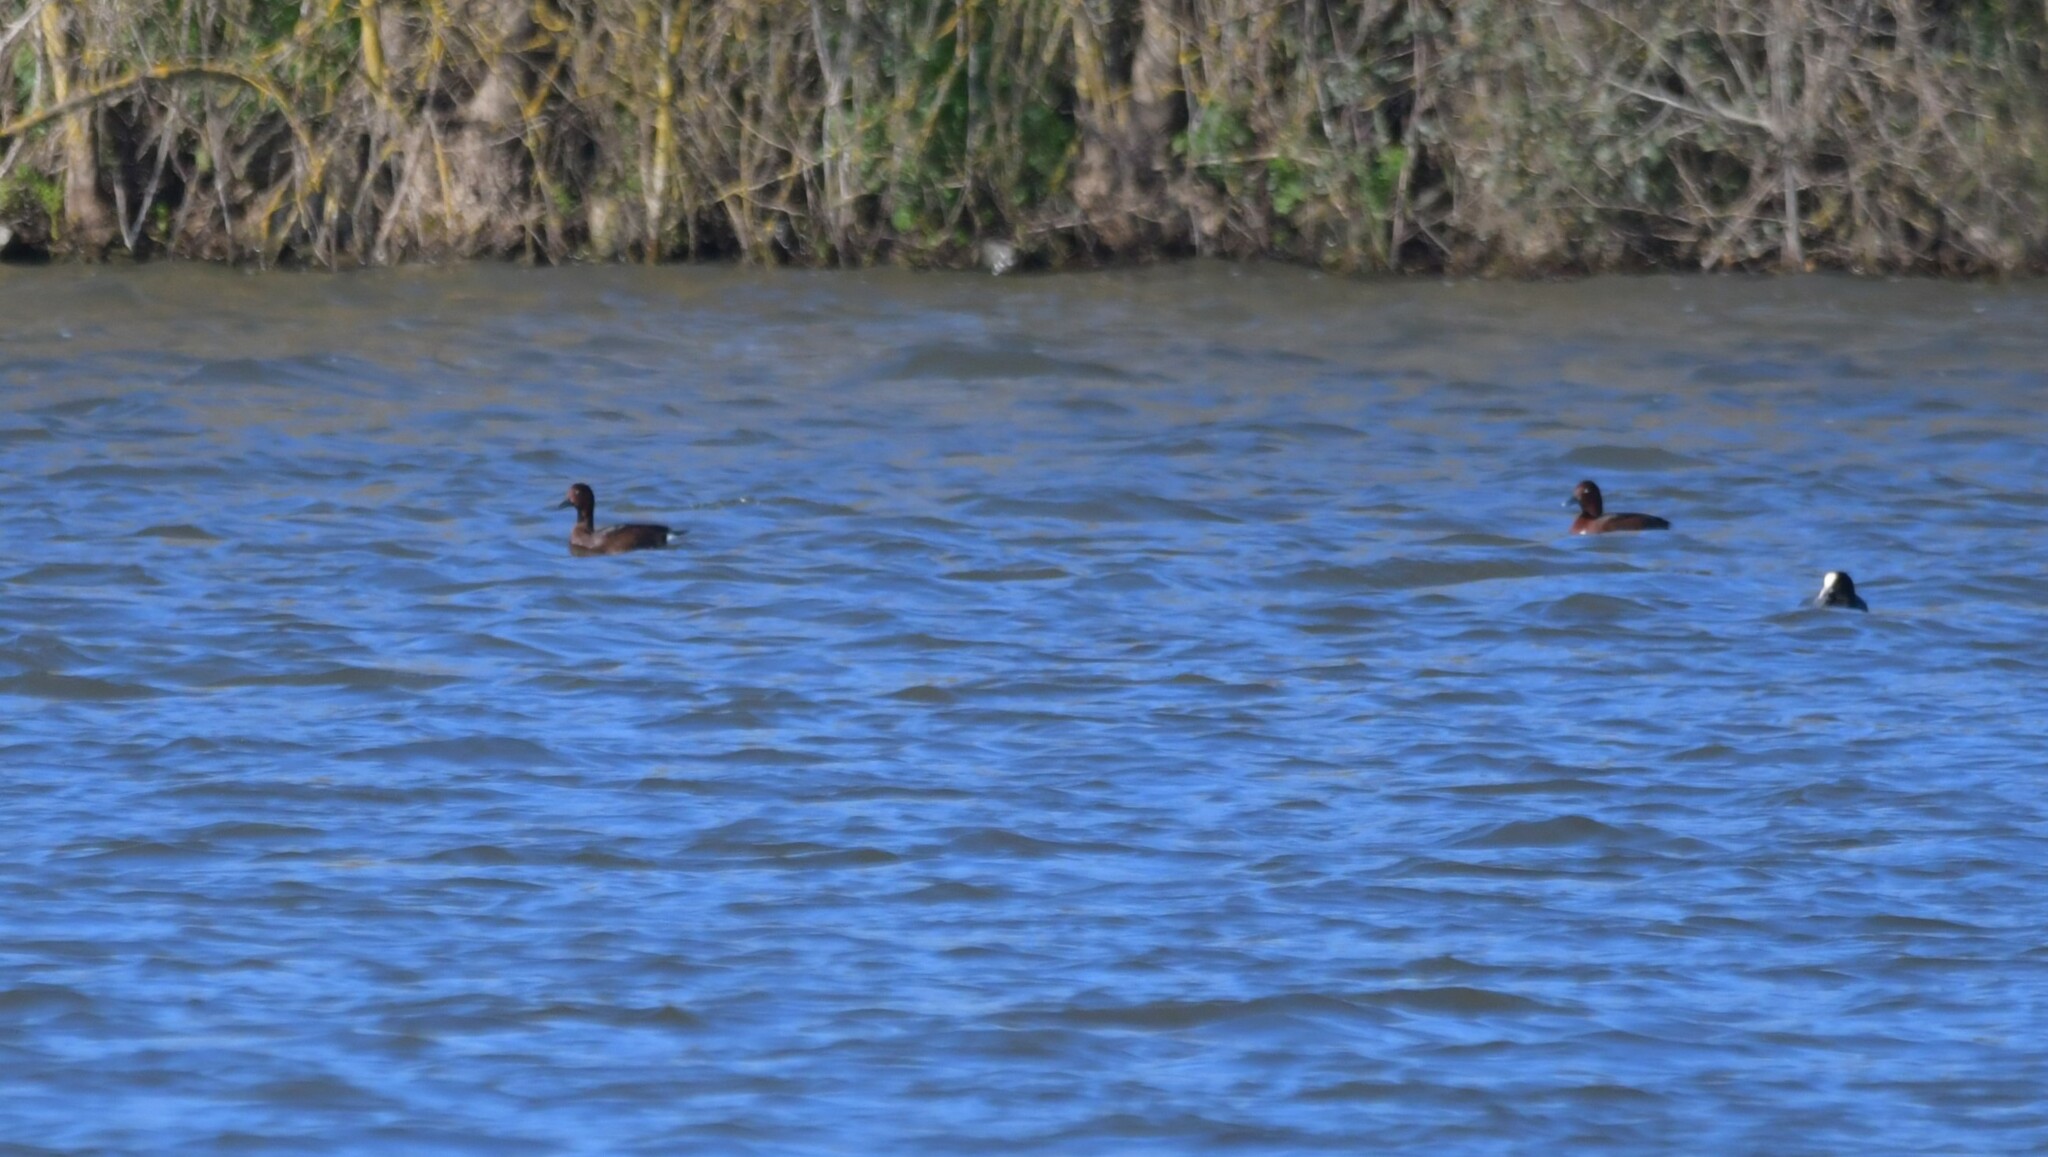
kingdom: Animalia
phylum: Chordata
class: Aves
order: Anseriformes
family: Anatidae
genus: Aythya
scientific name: Aythya nyroca
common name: Ferruginous duck
